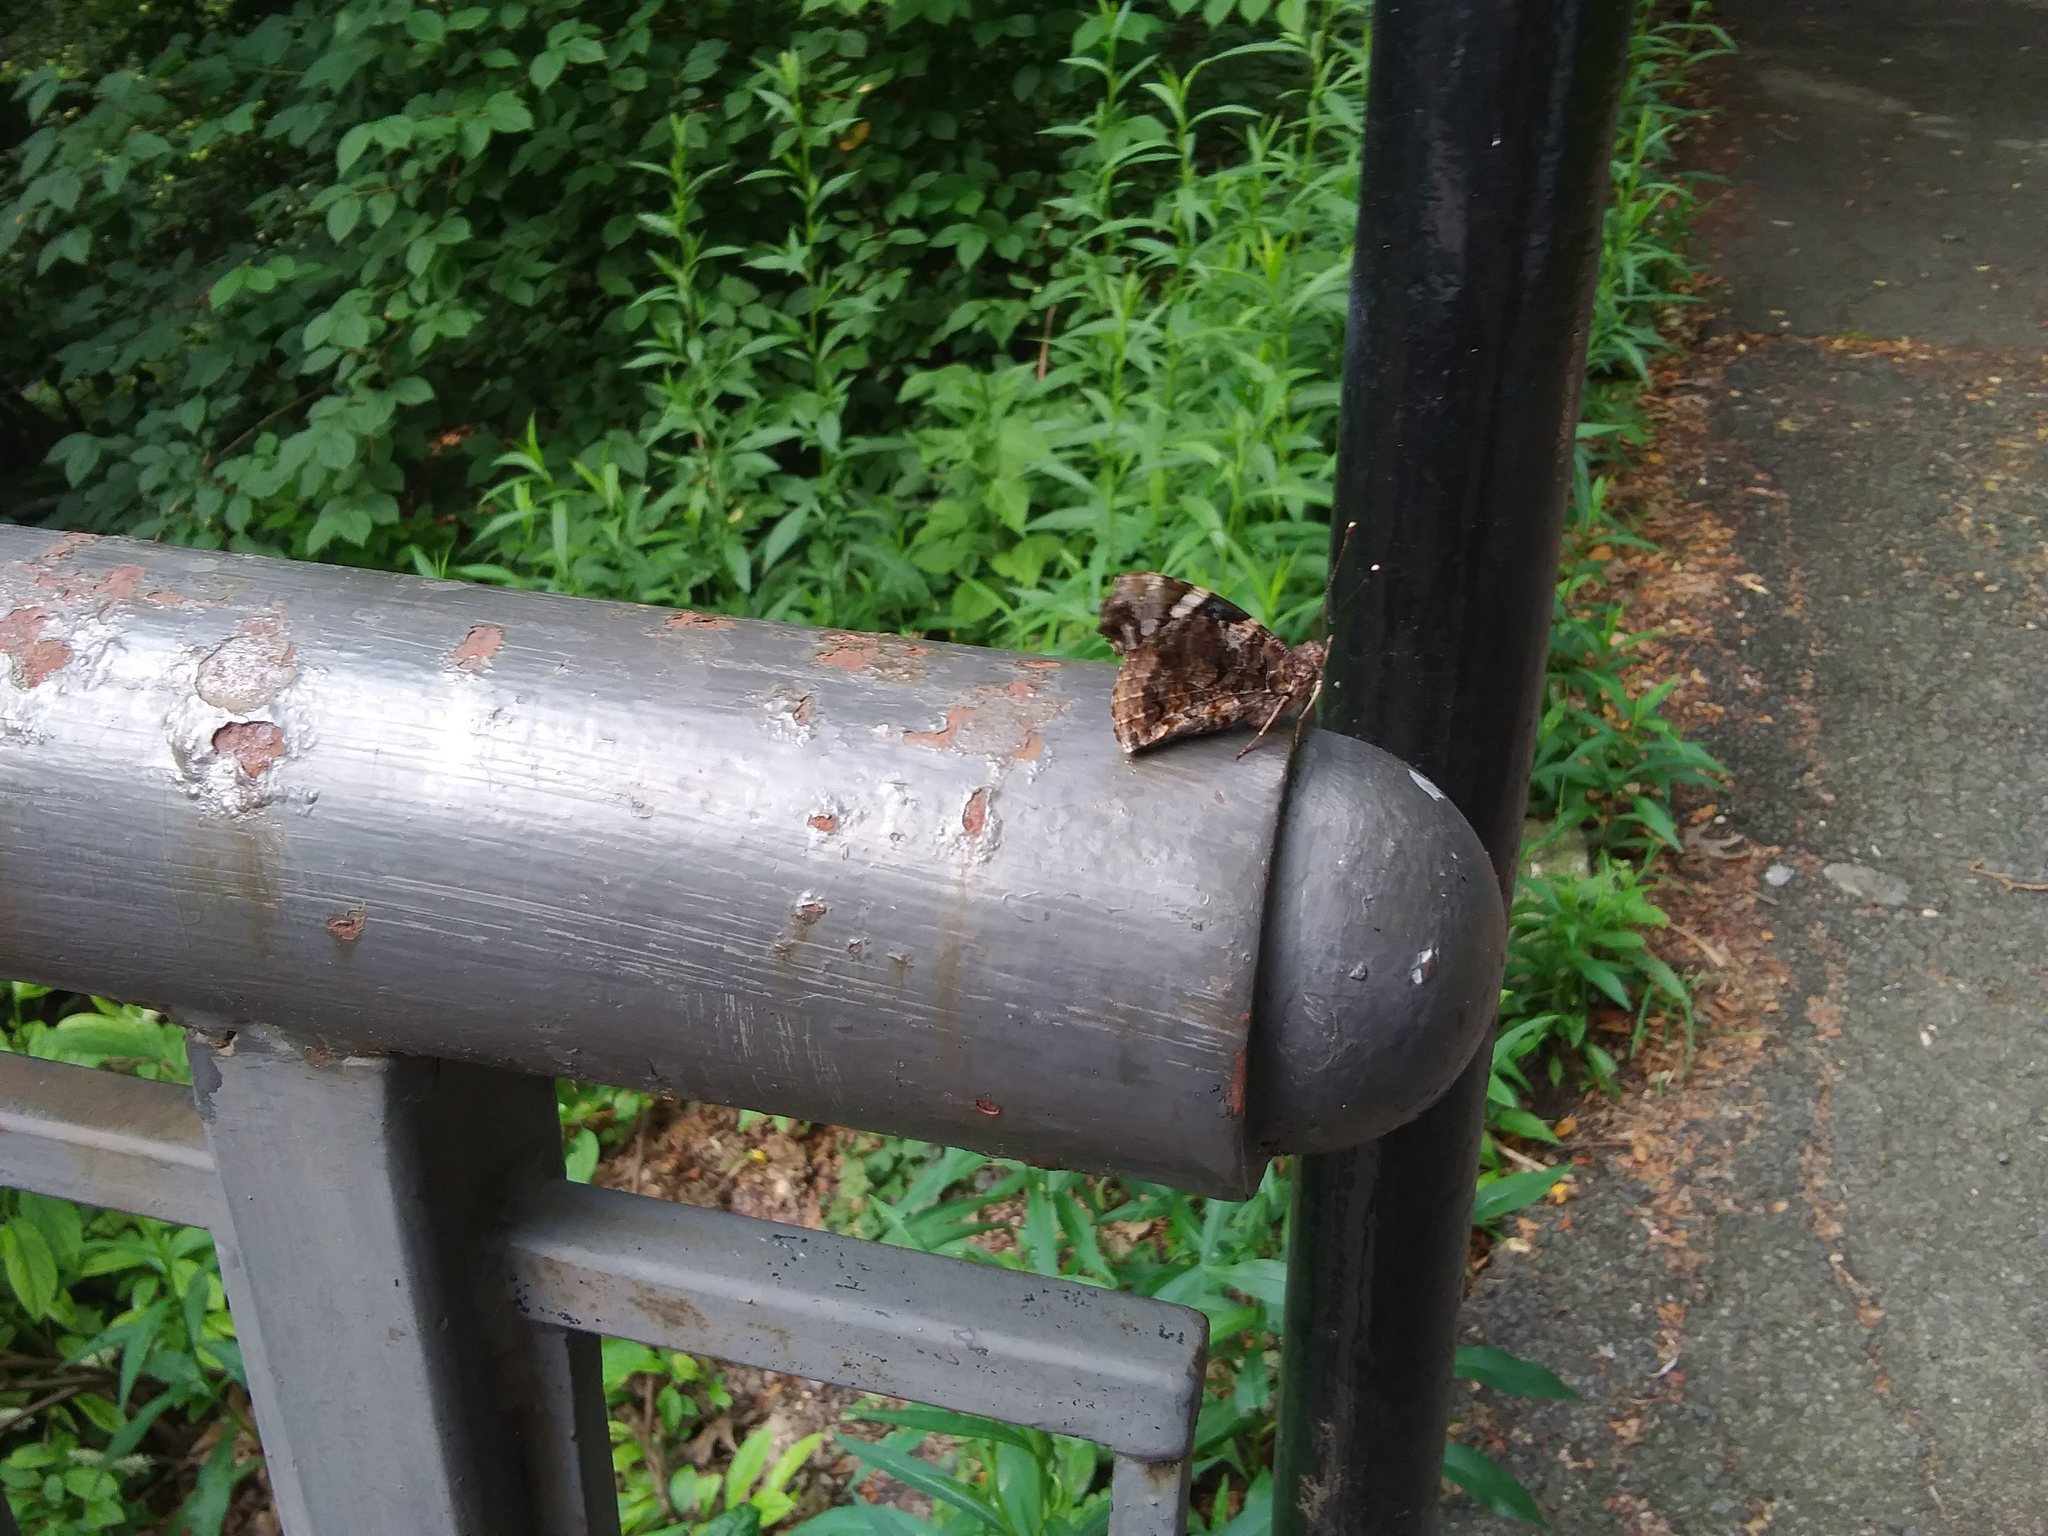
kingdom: Animalia
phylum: Arthropoda
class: Insecta
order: Lepidoptera
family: Nymphalidae
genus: Vanessa
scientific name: Vanessa atalanta
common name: Red admiral
